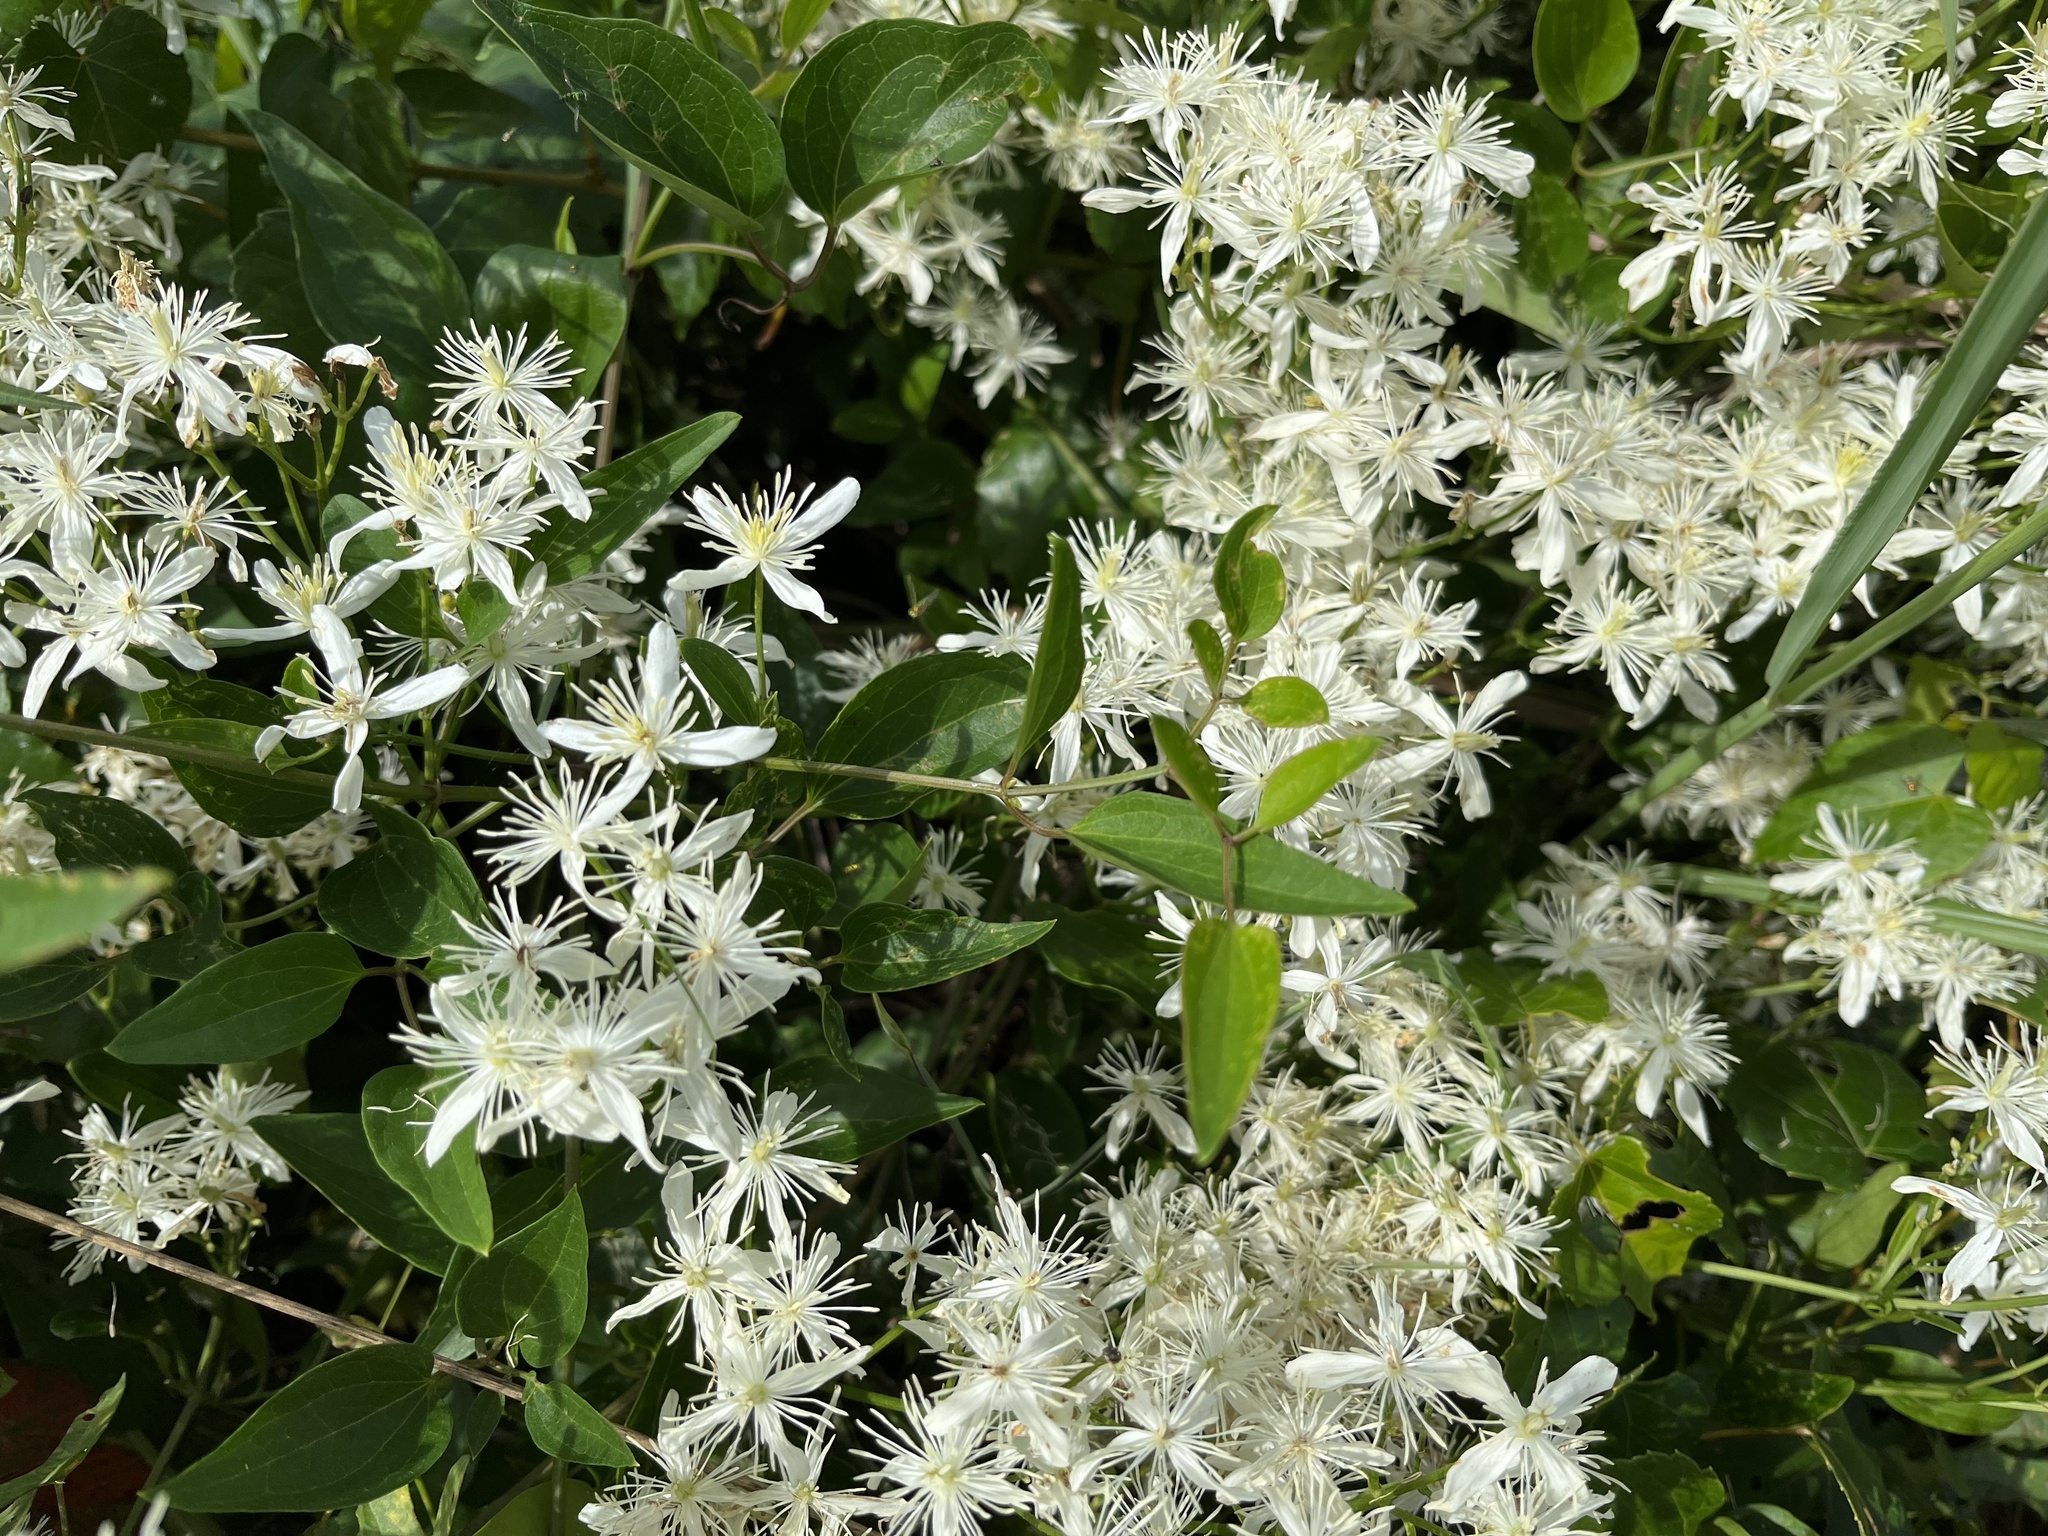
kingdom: Plantae
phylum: Tracheophyta
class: Magnoliopsida
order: Ranunculales
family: Ranunculaceae
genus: Clematis
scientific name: Clematis terniflora
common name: Sweet autumn clematis
